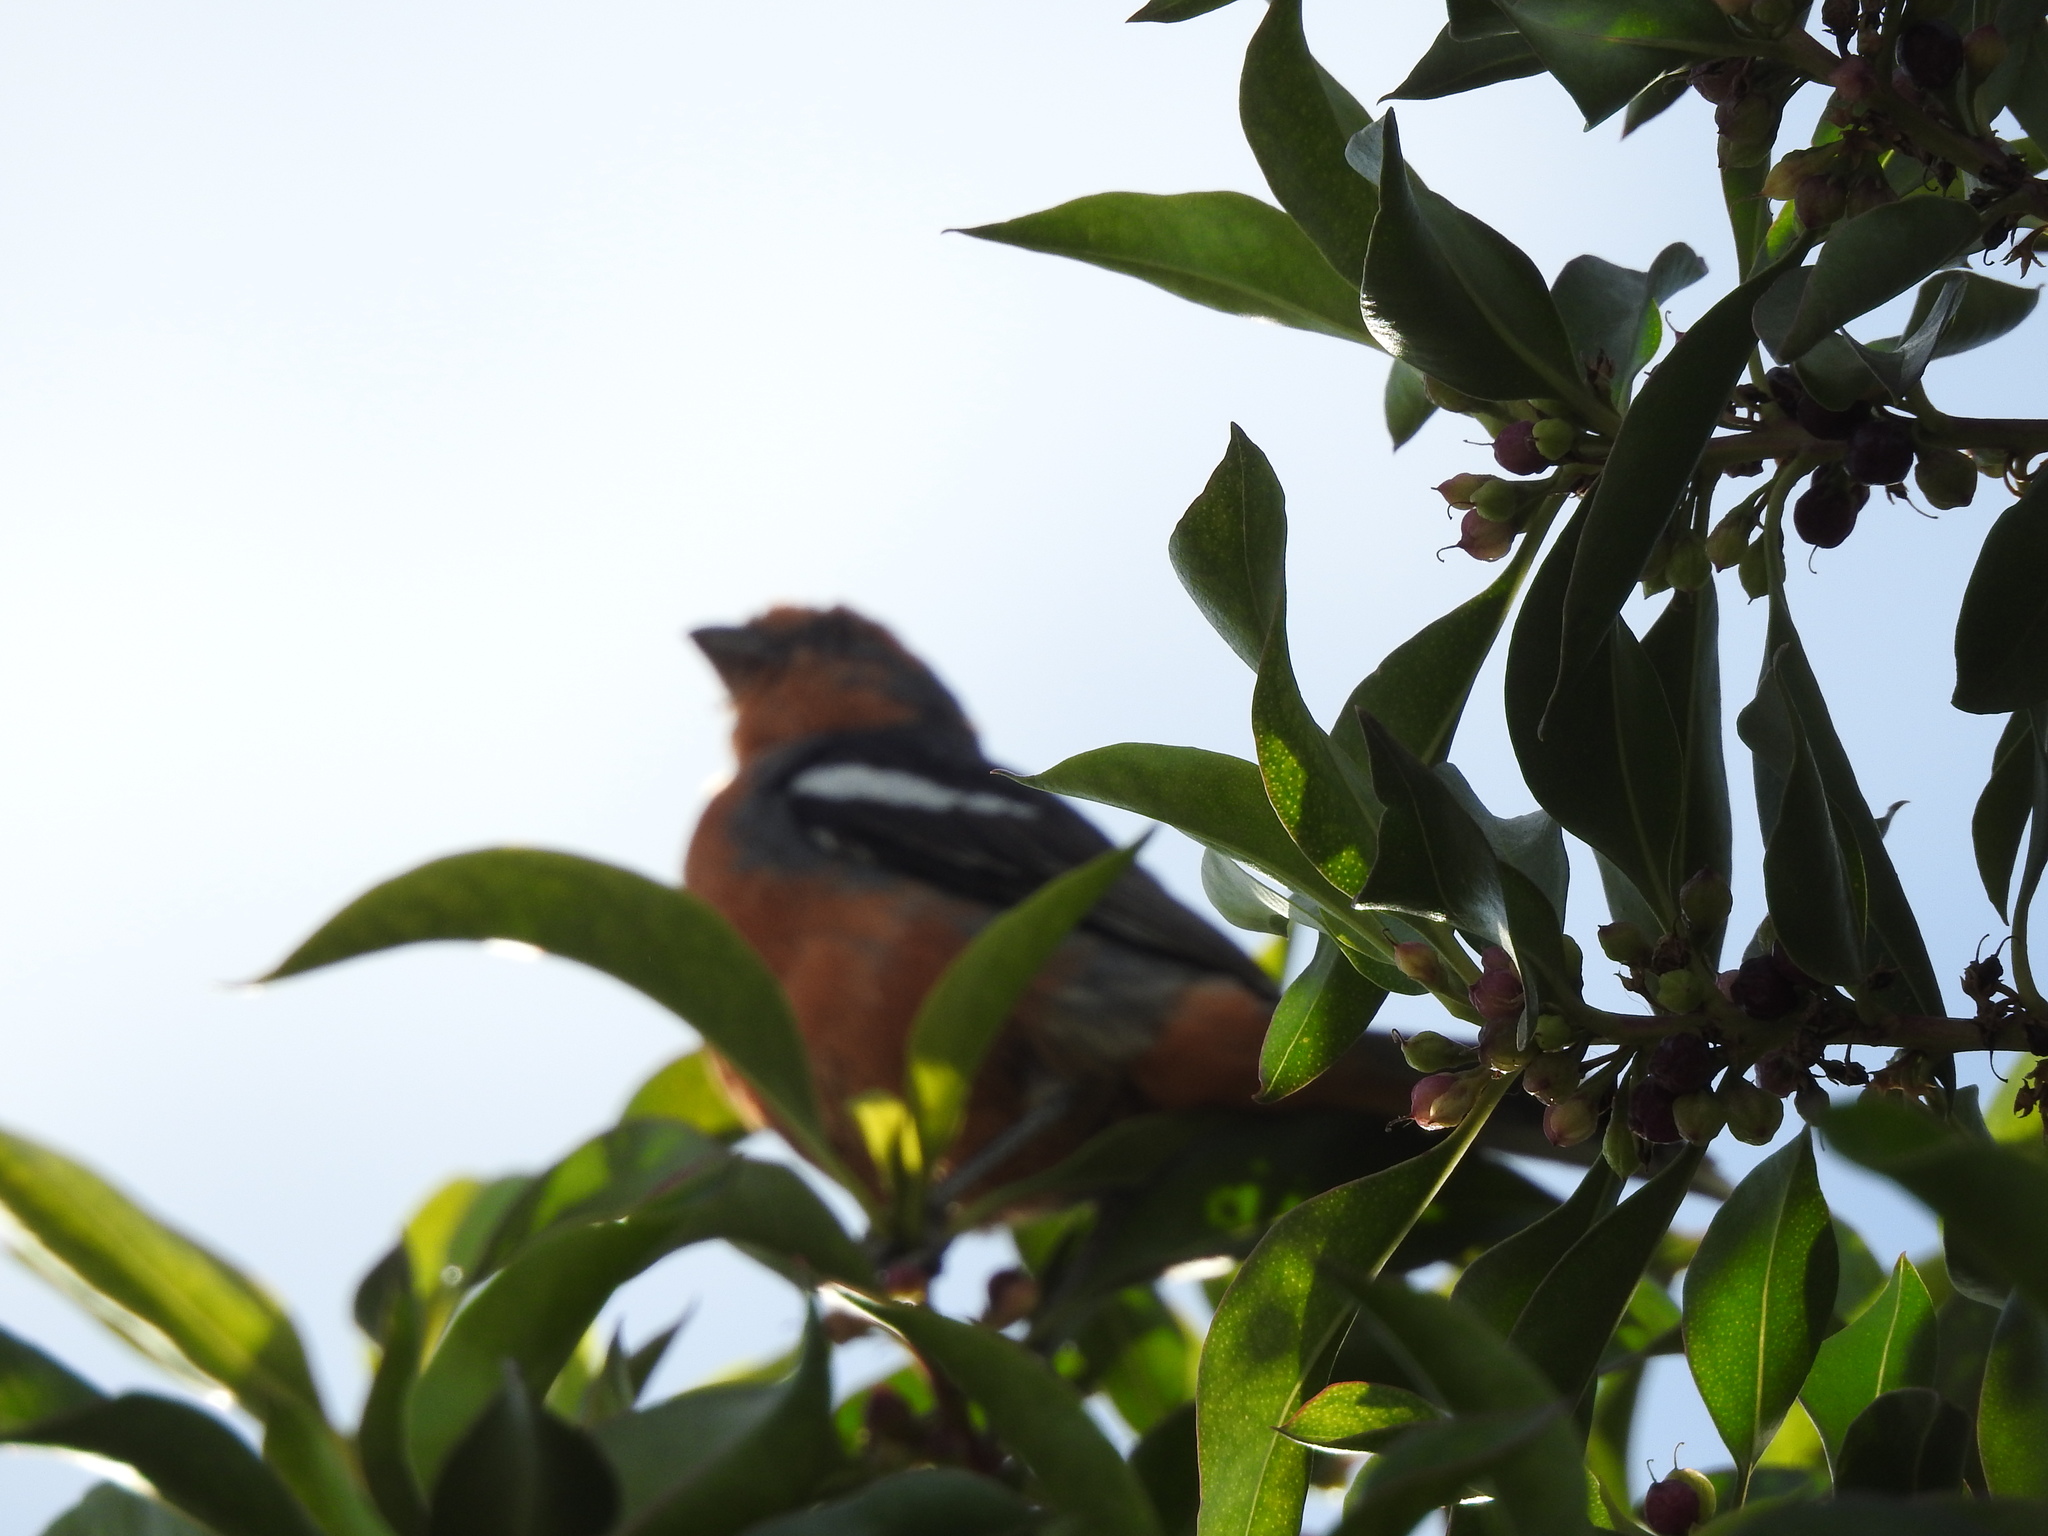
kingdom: Animalia
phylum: Chordata
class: Aves
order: Passeriformes
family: Cotingidae
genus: Phytotoma
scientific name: Phytotoma rutila
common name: White-tipped plantcutter
